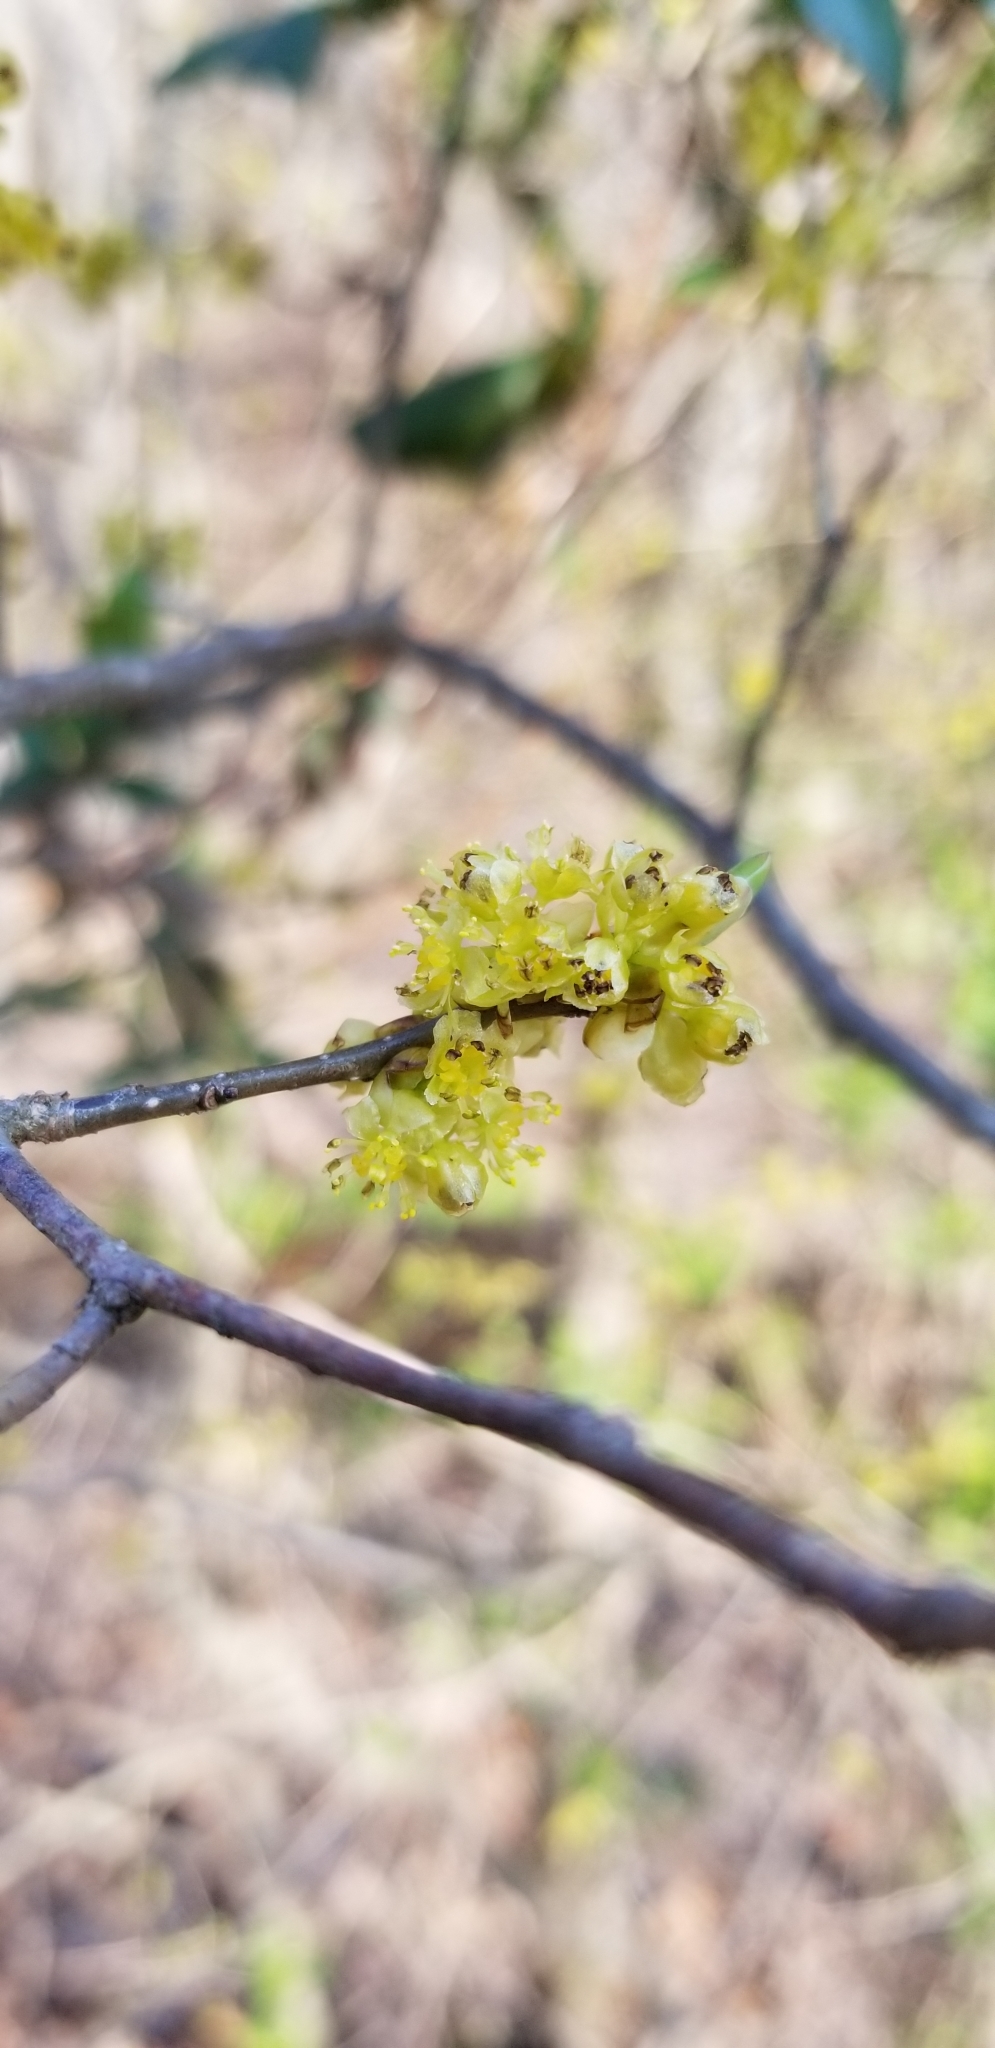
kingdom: Plantae
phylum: Tracheophyta
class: Magnoliopsida
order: Laurales
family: Lauraceae
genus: Lindera
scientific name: Lindera benzoin
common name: Spicebush
